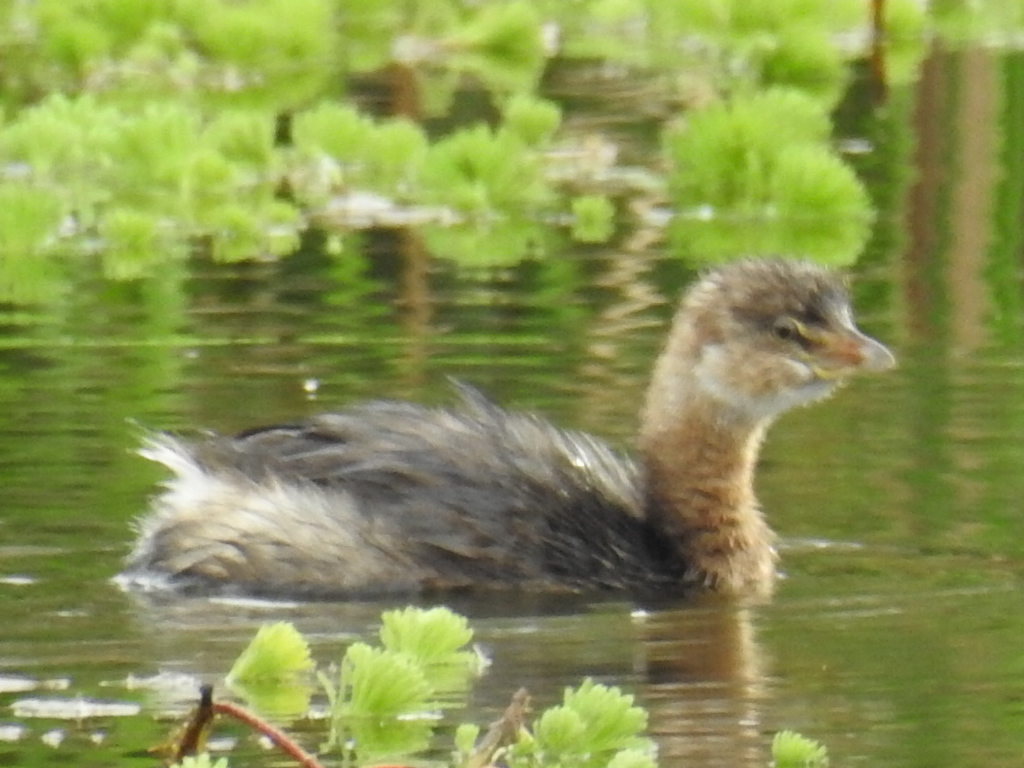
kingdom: Animalia
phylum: Chordata
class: Aves
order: Podicipediformes
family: Podicipedidae
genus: Podilymbus
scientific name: Podilymbus podiceps
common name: Pied-billed grebe
